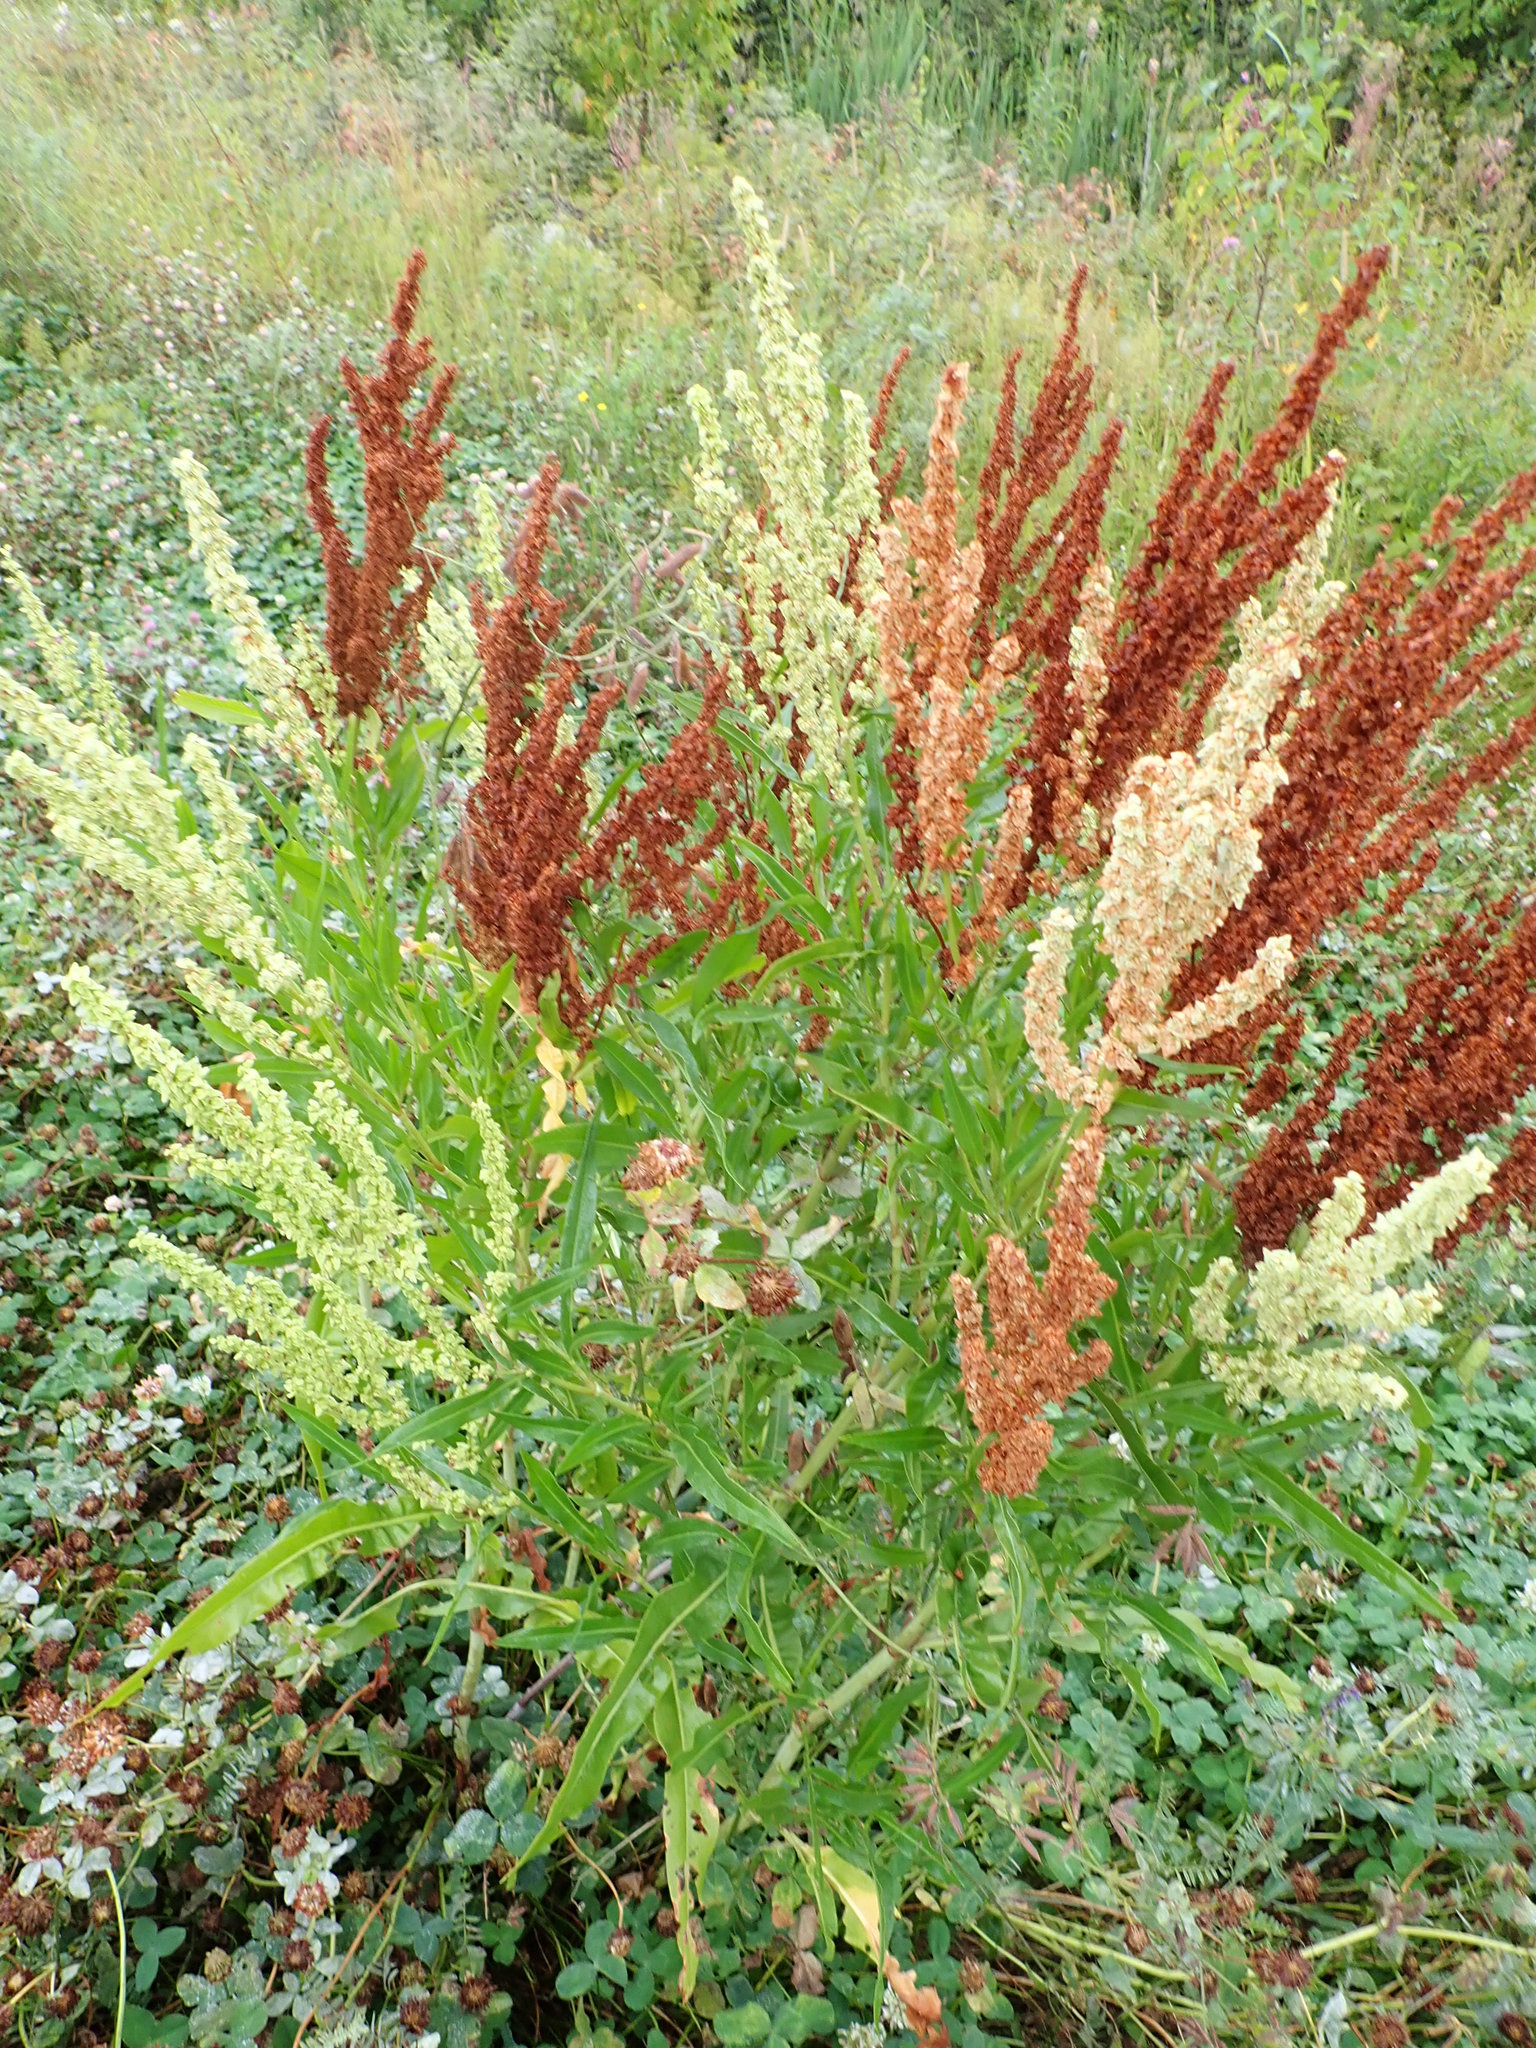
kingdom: Plantae
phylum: Tracheophyta
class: Magnoliopsida
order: Caryophyllales
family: Polygonaceae
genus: Rumex
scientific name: Rumex triangulivalvis
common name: Triangular-valve dock
